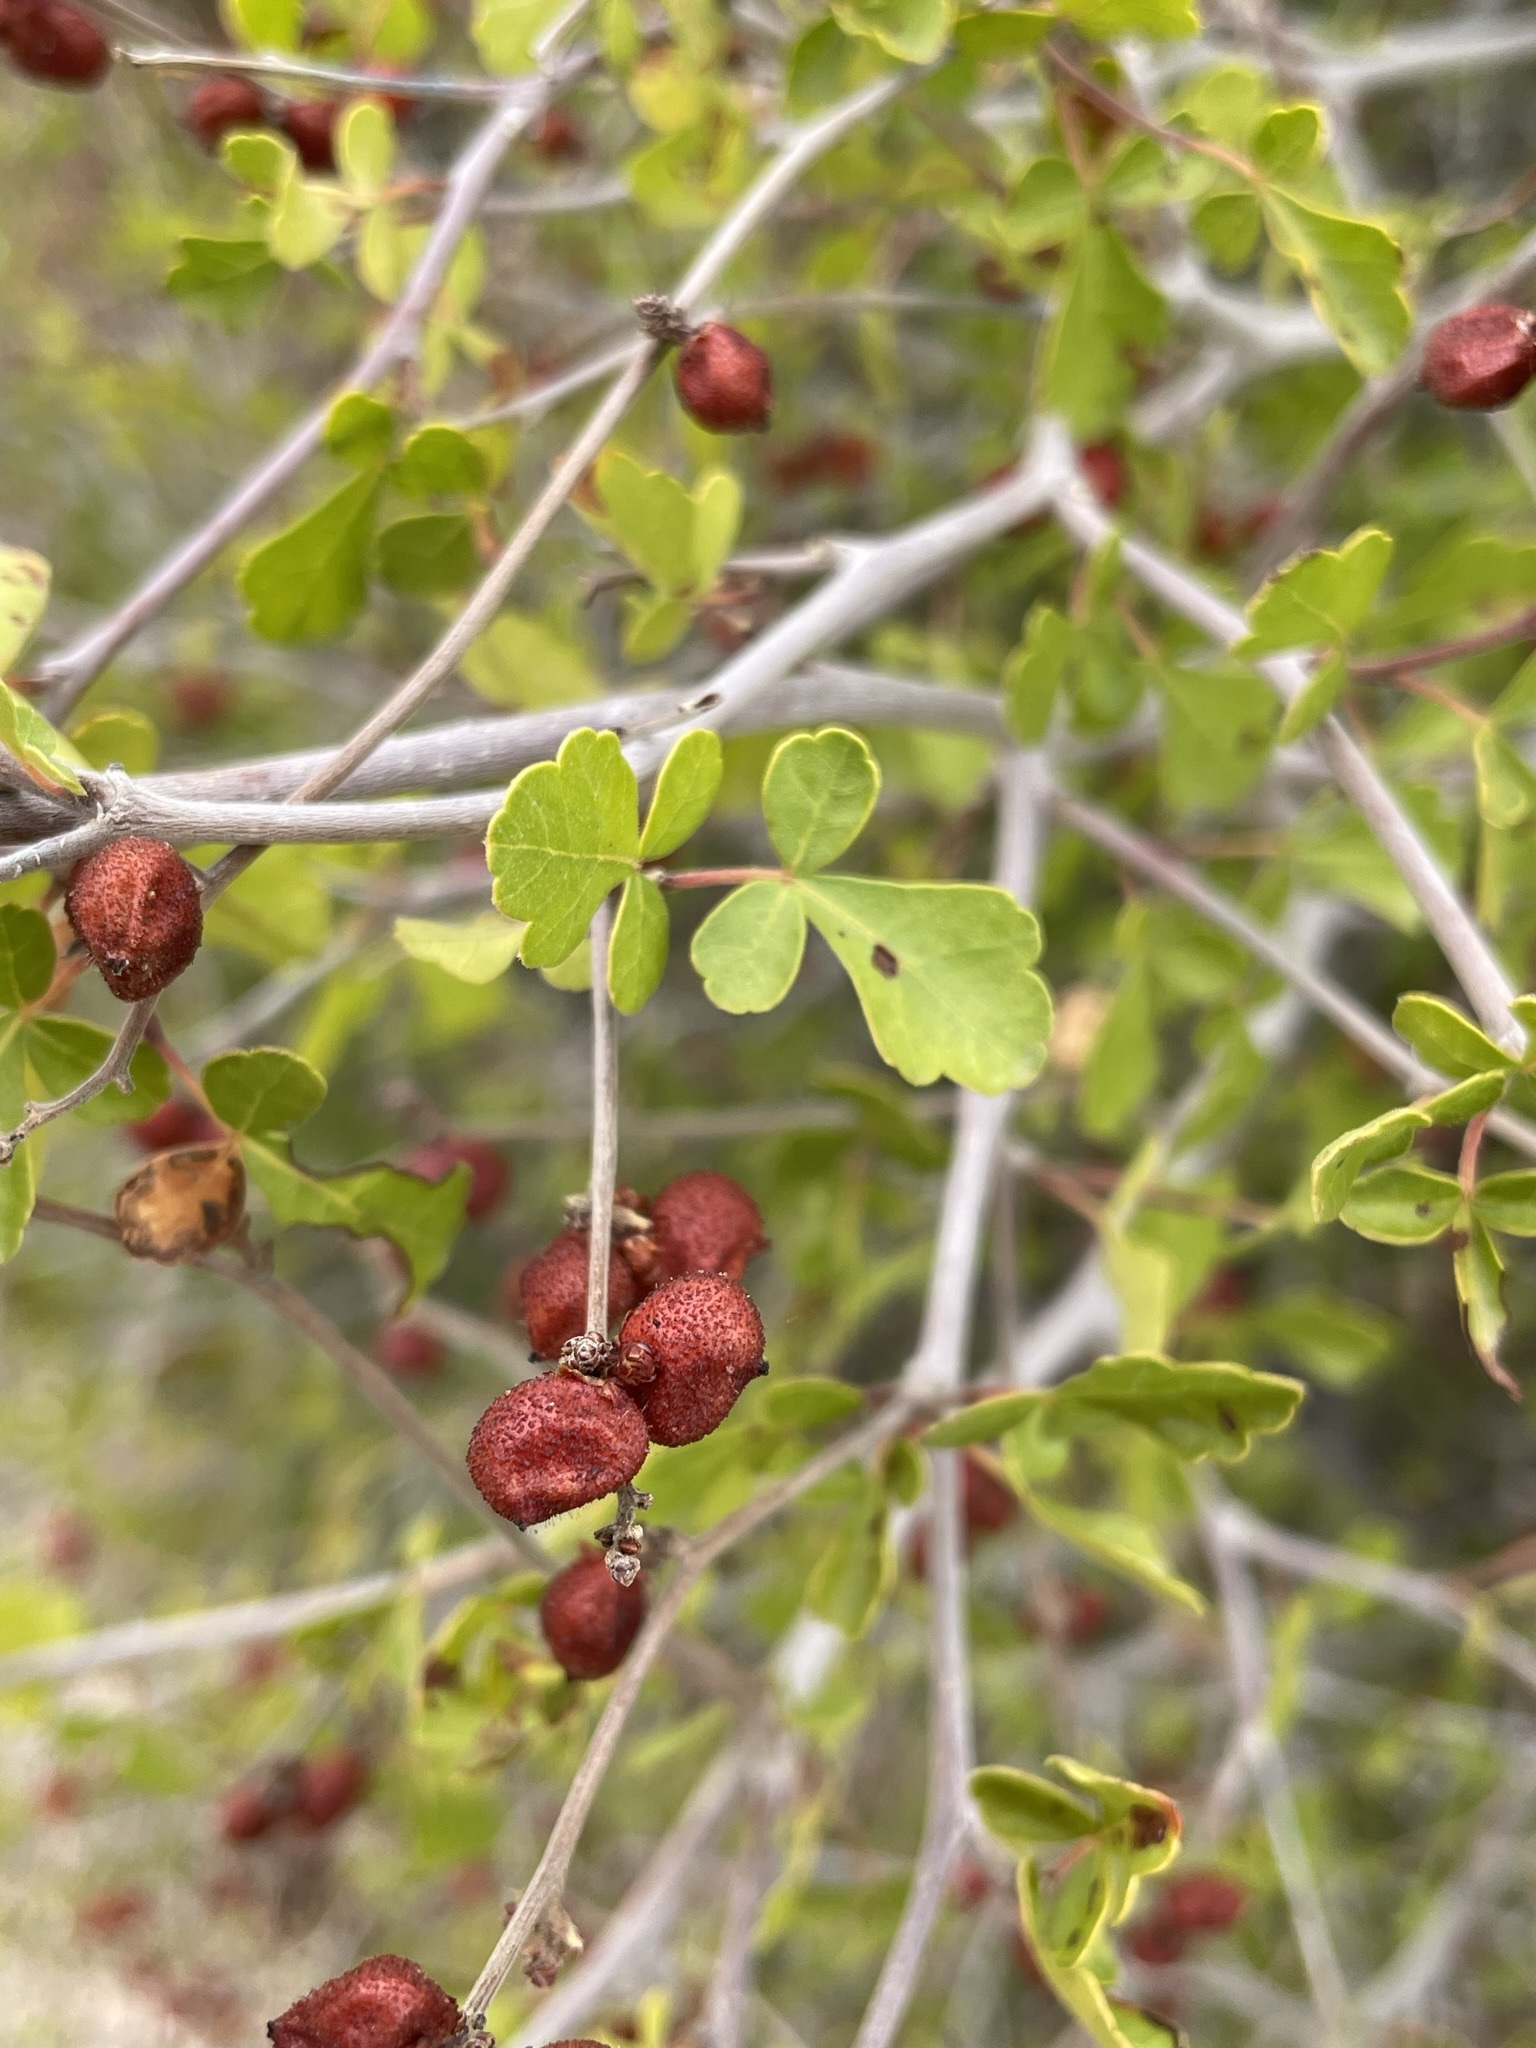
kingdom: Plantae
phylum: Tracheophyta
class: Magnoliopsida
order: Sapindales
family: Anacardiaceae
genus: Rhus
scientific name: Rhus trilobata
